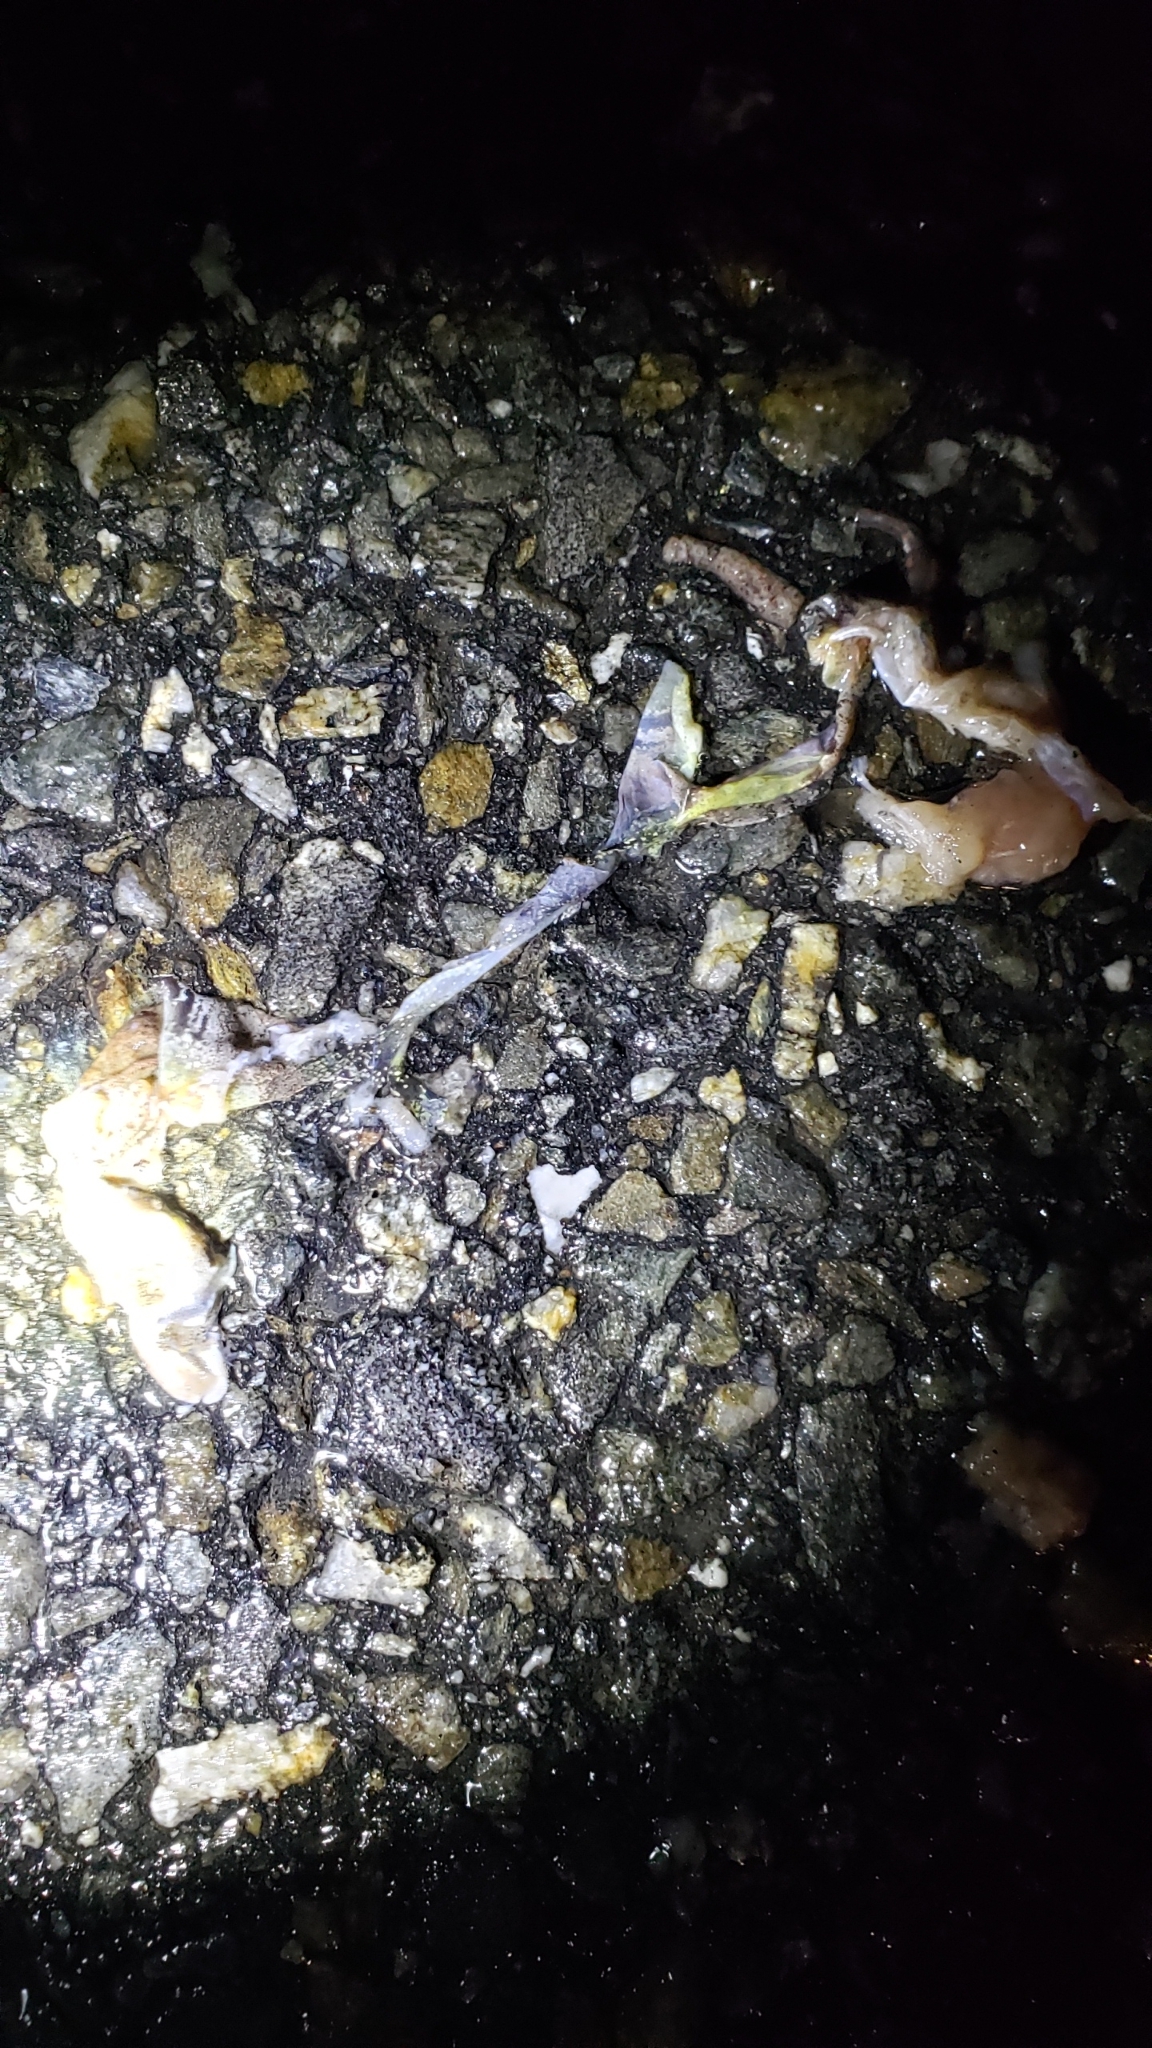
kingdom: Animalia
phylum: Chordata
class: Amphibia
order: Anura
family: Ranidae
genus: Lithobates
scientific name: Lithobates sylvaticus
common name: Wood frog
